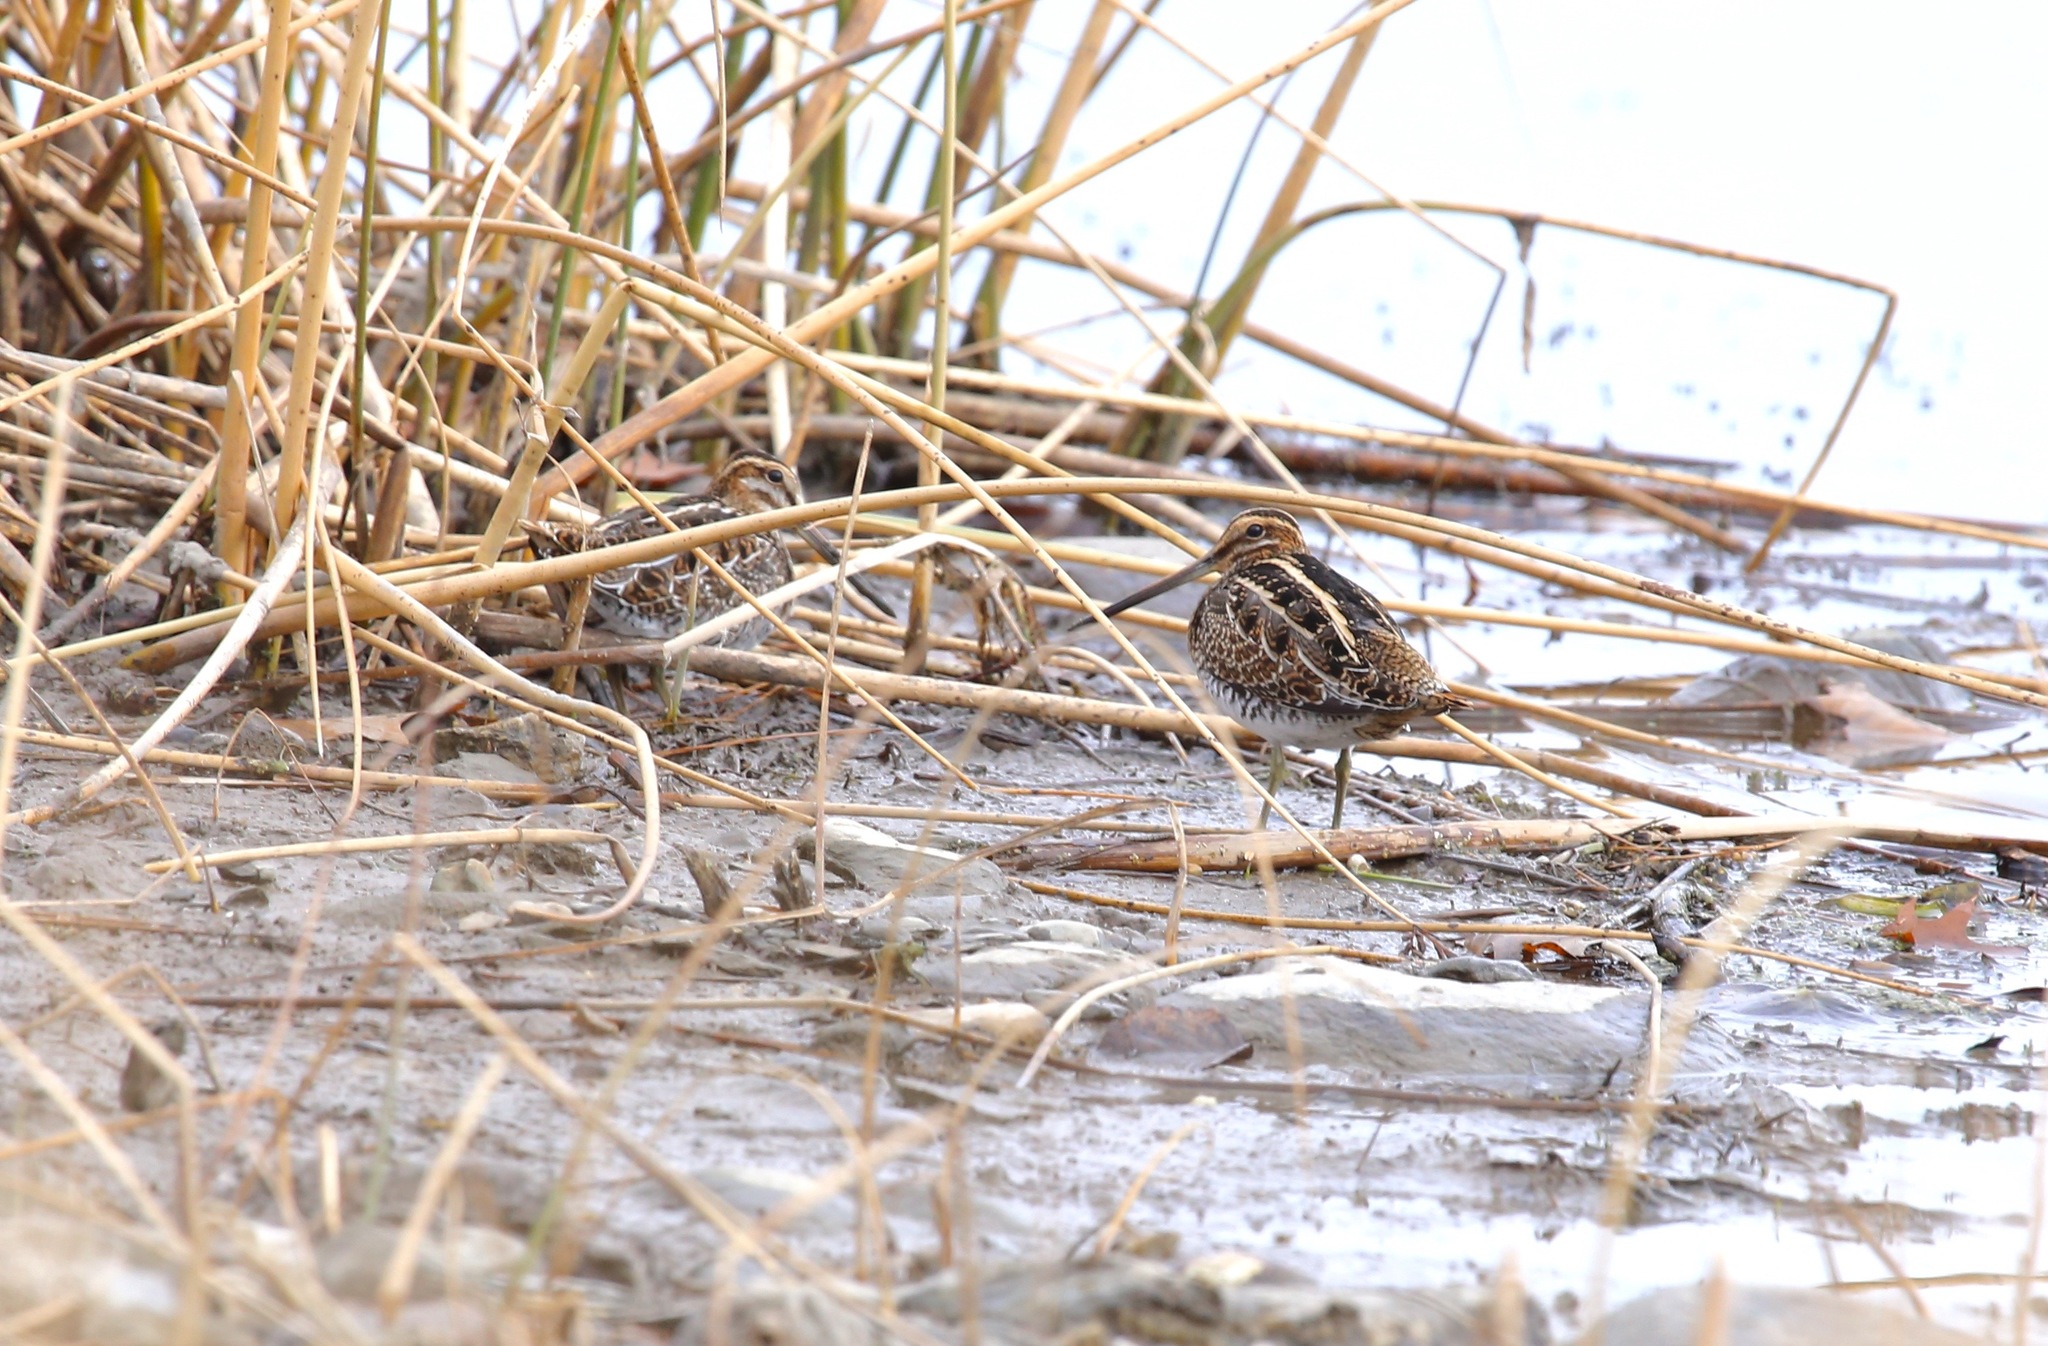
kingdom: Animalia
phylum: Chordata
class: Aves
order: Charadriiformes
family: Scolopacidae
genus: Gallinago
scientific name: Gallinago delicata
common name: Wilson's snipe
